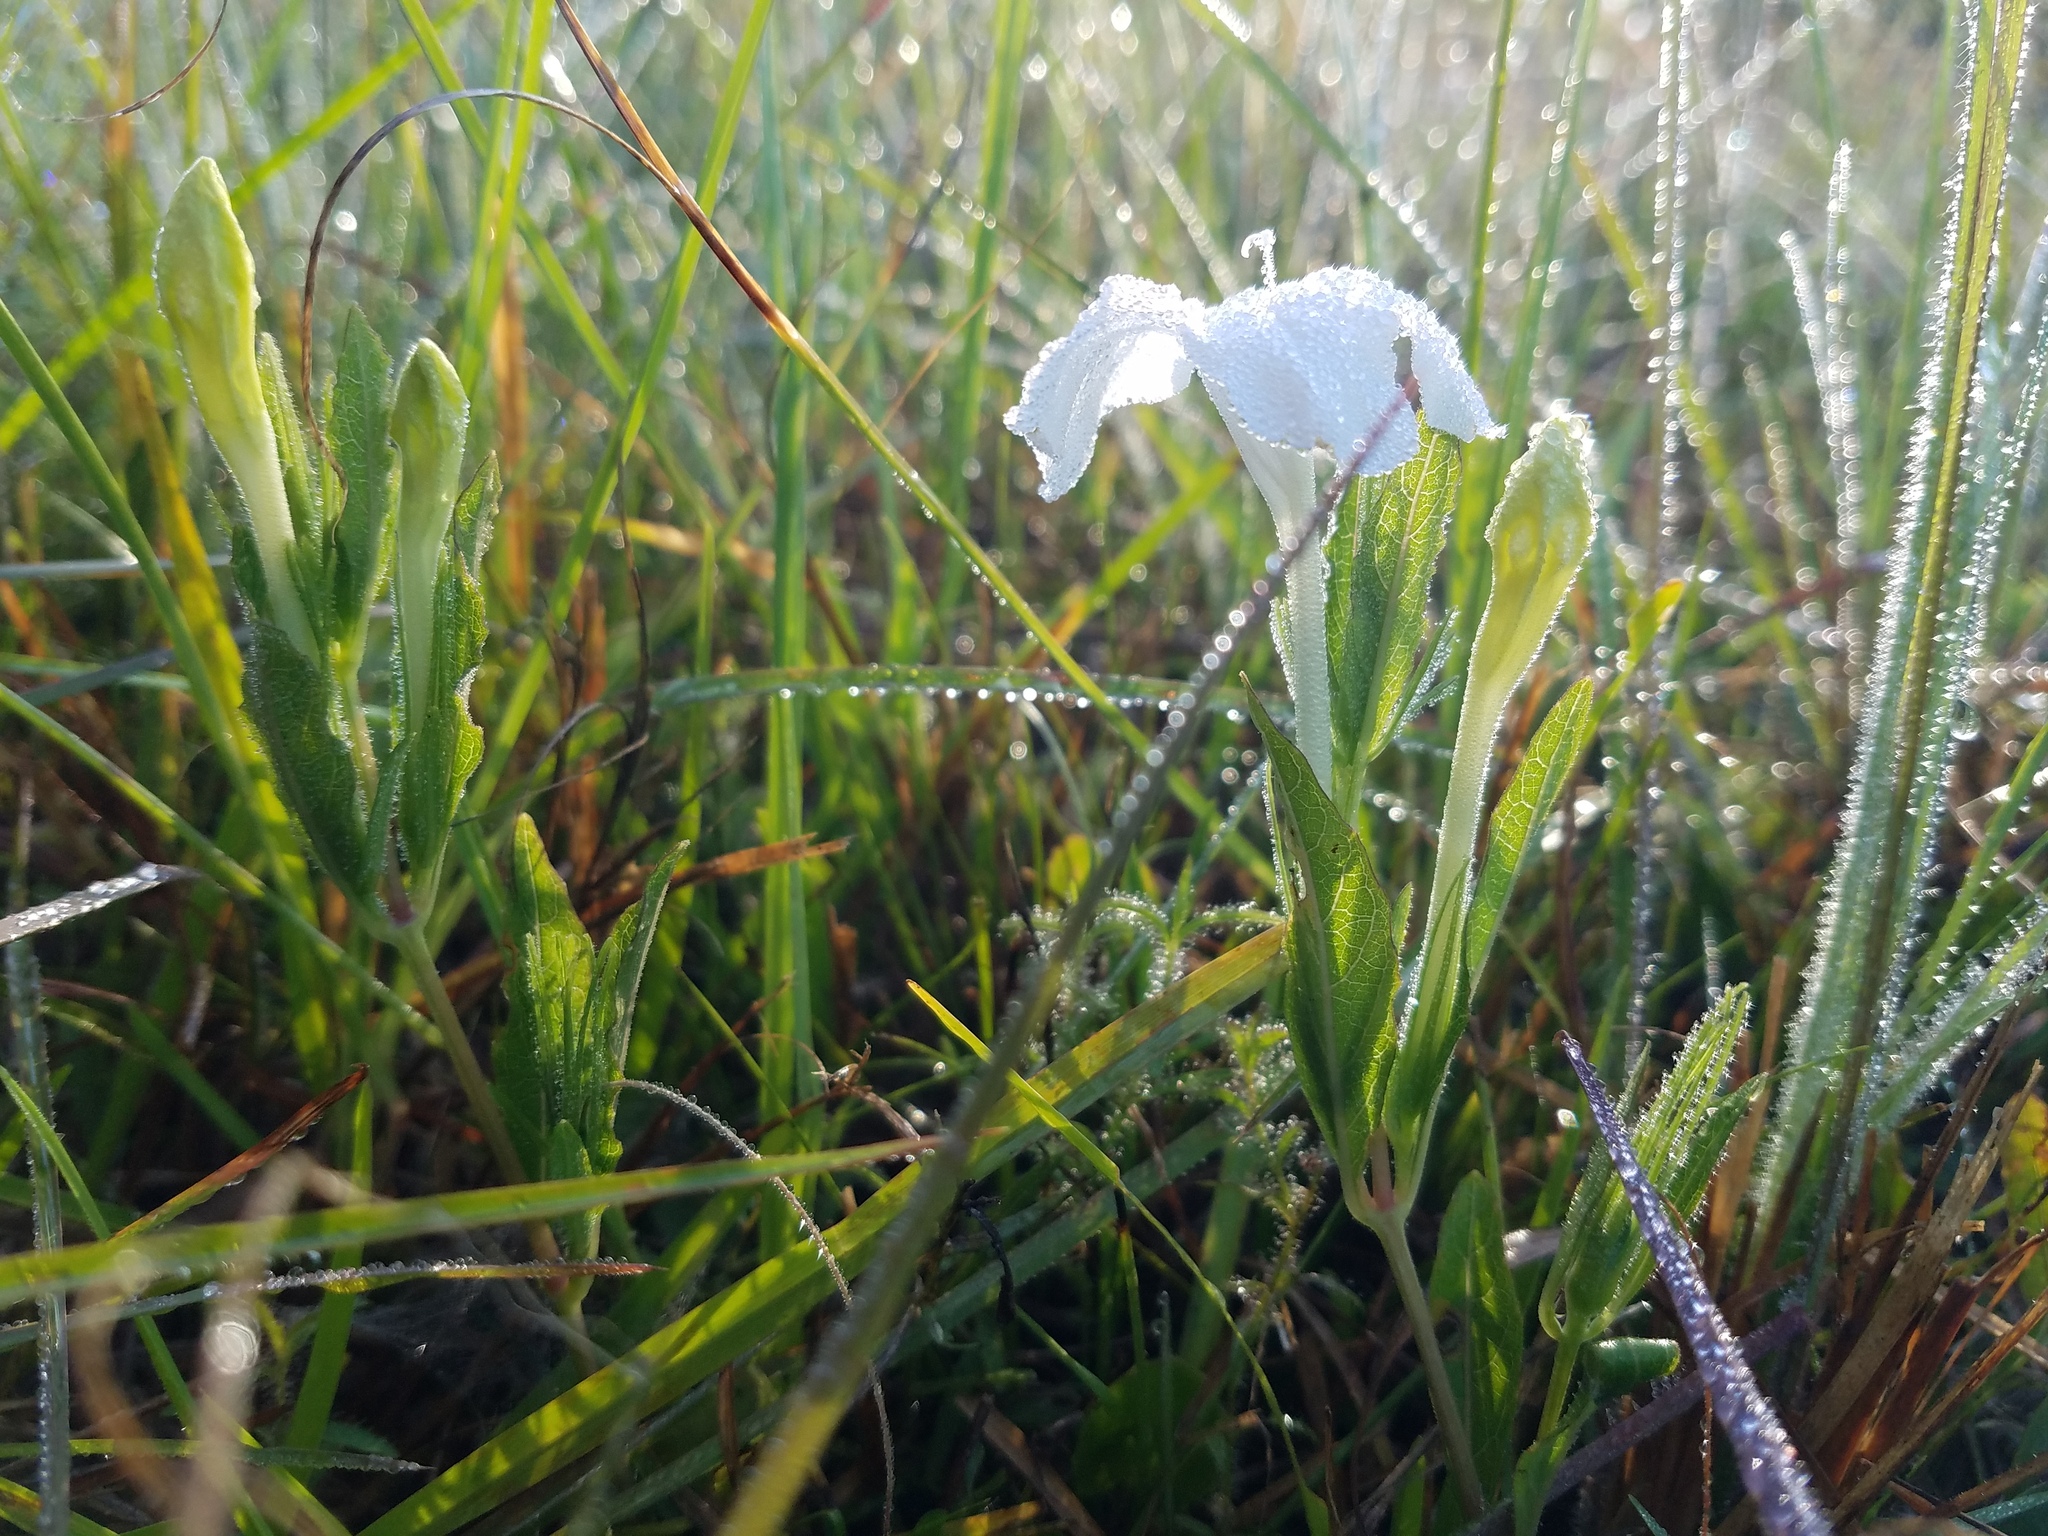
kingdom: Plantae
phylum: Tracheophyta
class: Magnoliopsida
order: Lamiales
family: Acanthaceae
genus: Ruellia
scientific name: Ruellia noctiflora
